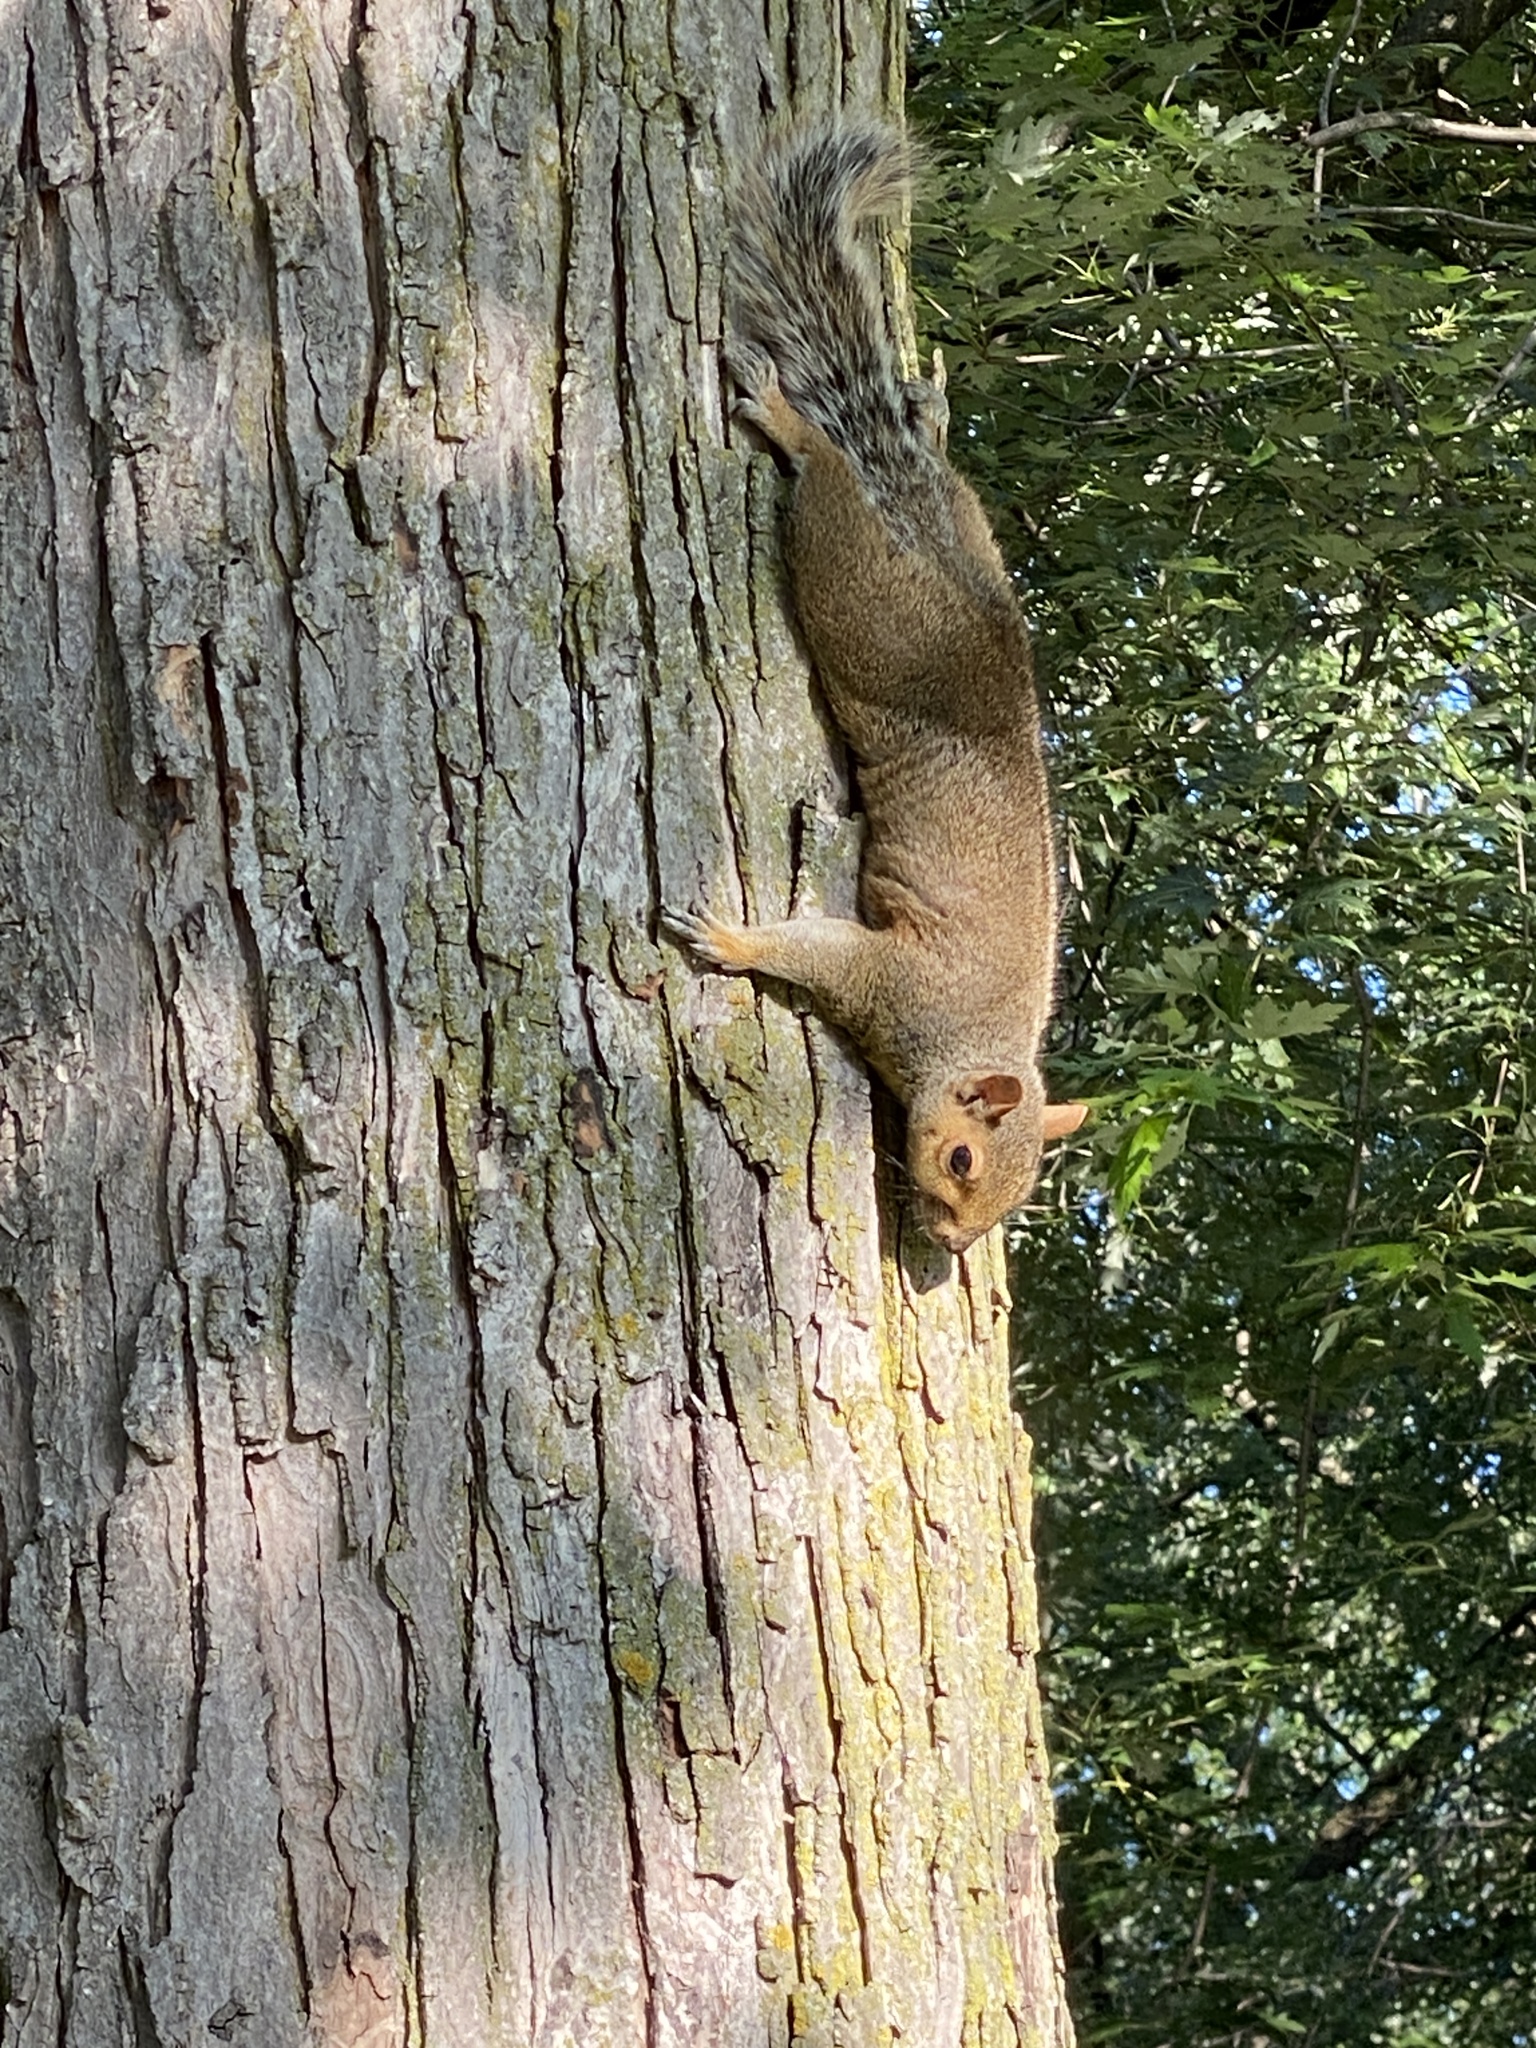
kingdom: Animalia
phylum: Chordata
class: Mammalia
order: Rodentia
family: Sciuridae
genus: Sciurus
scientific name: Sciurus carolinensis
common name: Eastern gray squirrel
